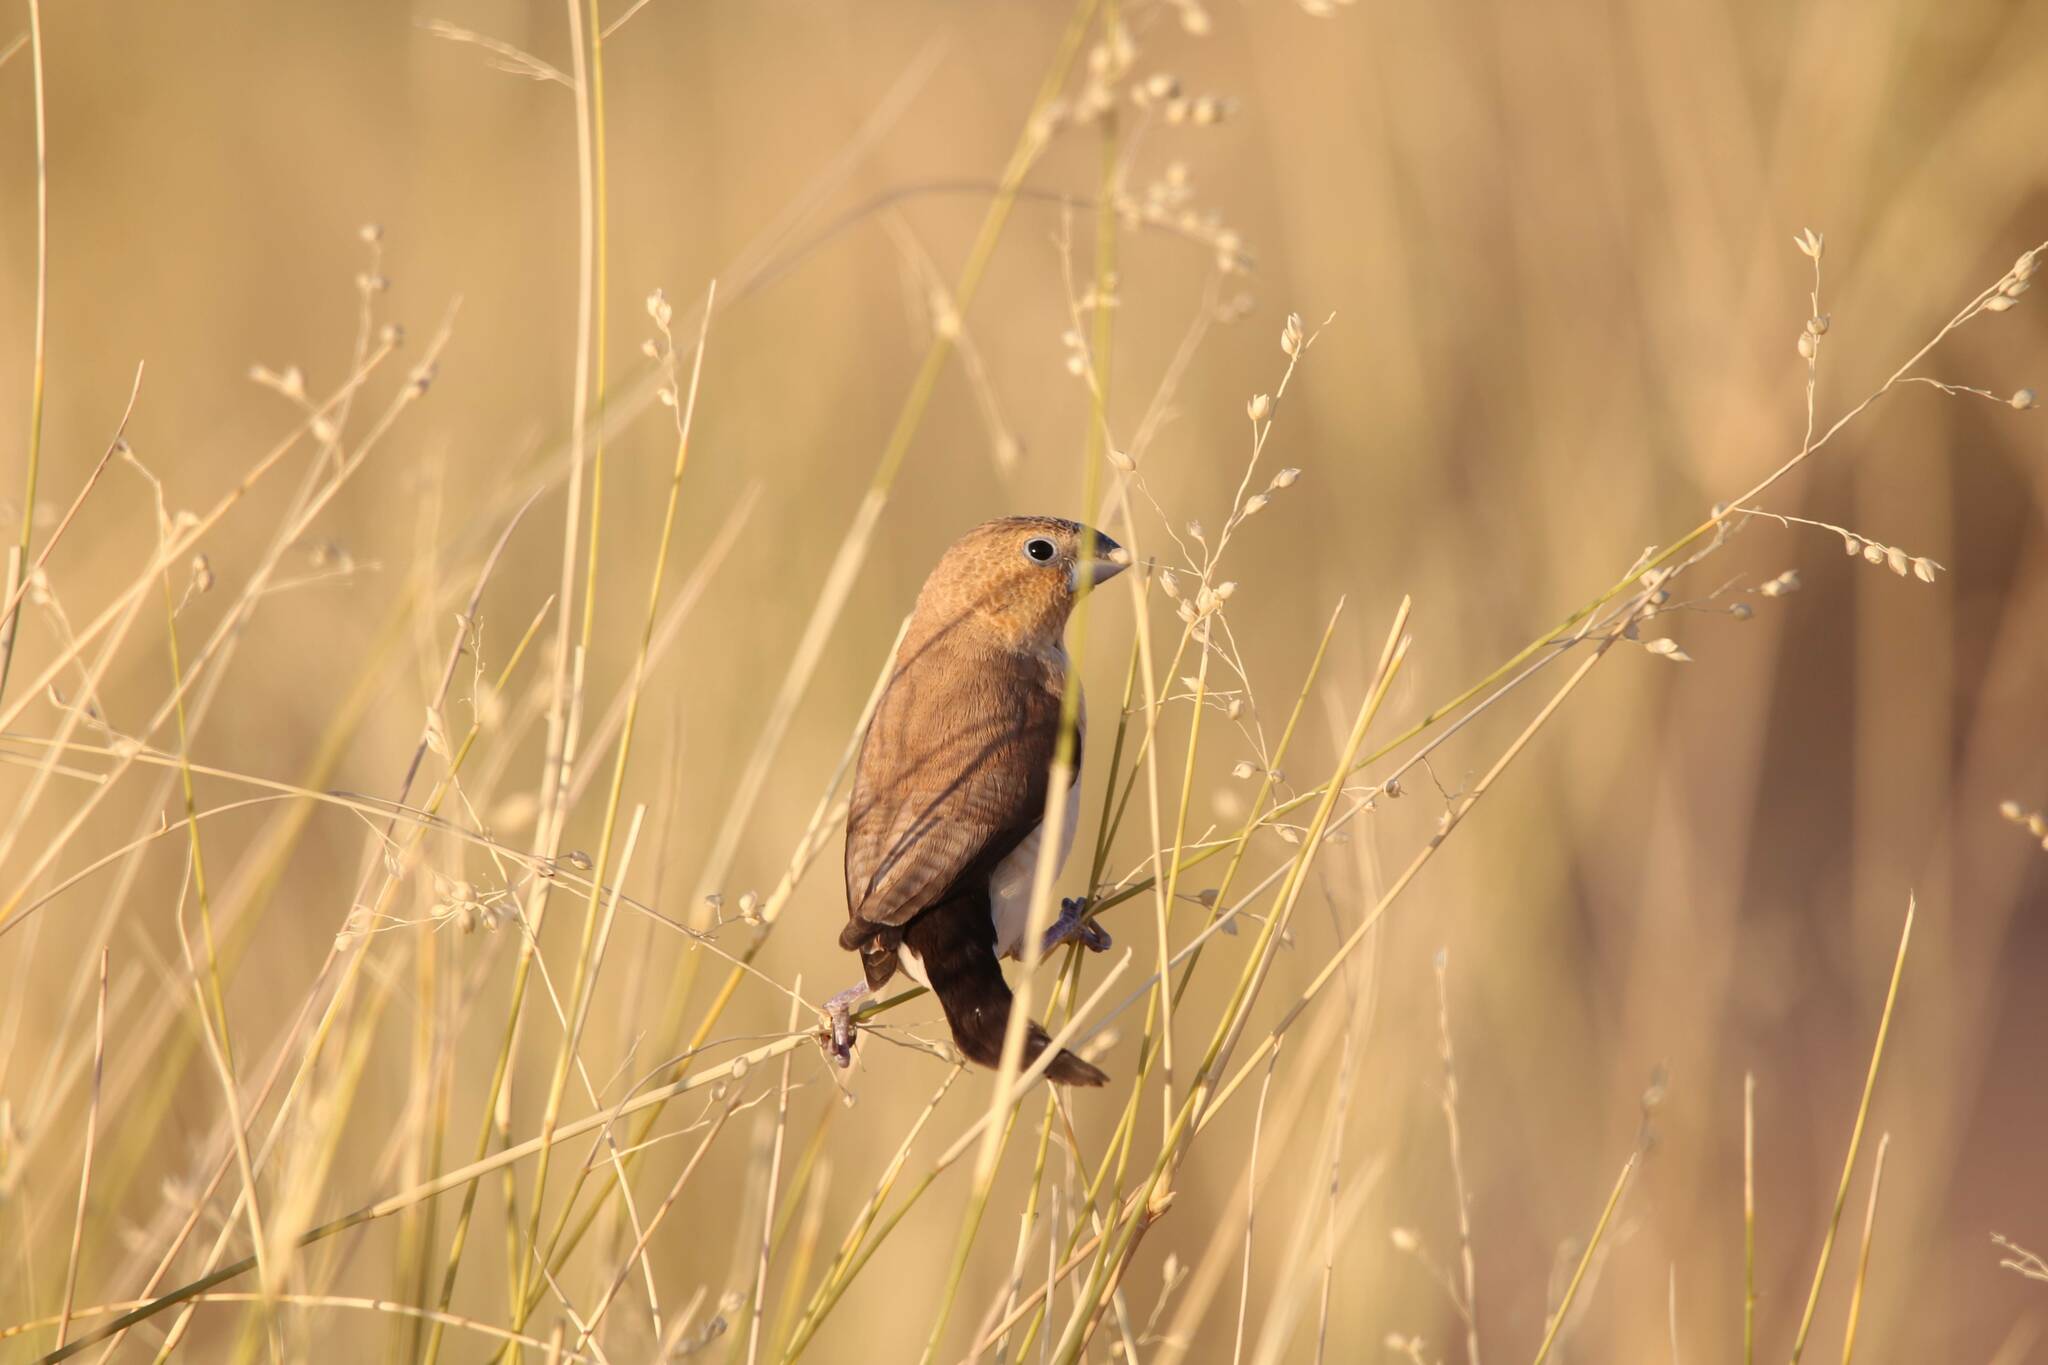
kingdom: Animalia
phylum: Chordata
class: Aves
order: Passeriformes
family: Estrildidae
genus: Euodice
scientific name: Euodice cantans
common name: African silverbill
